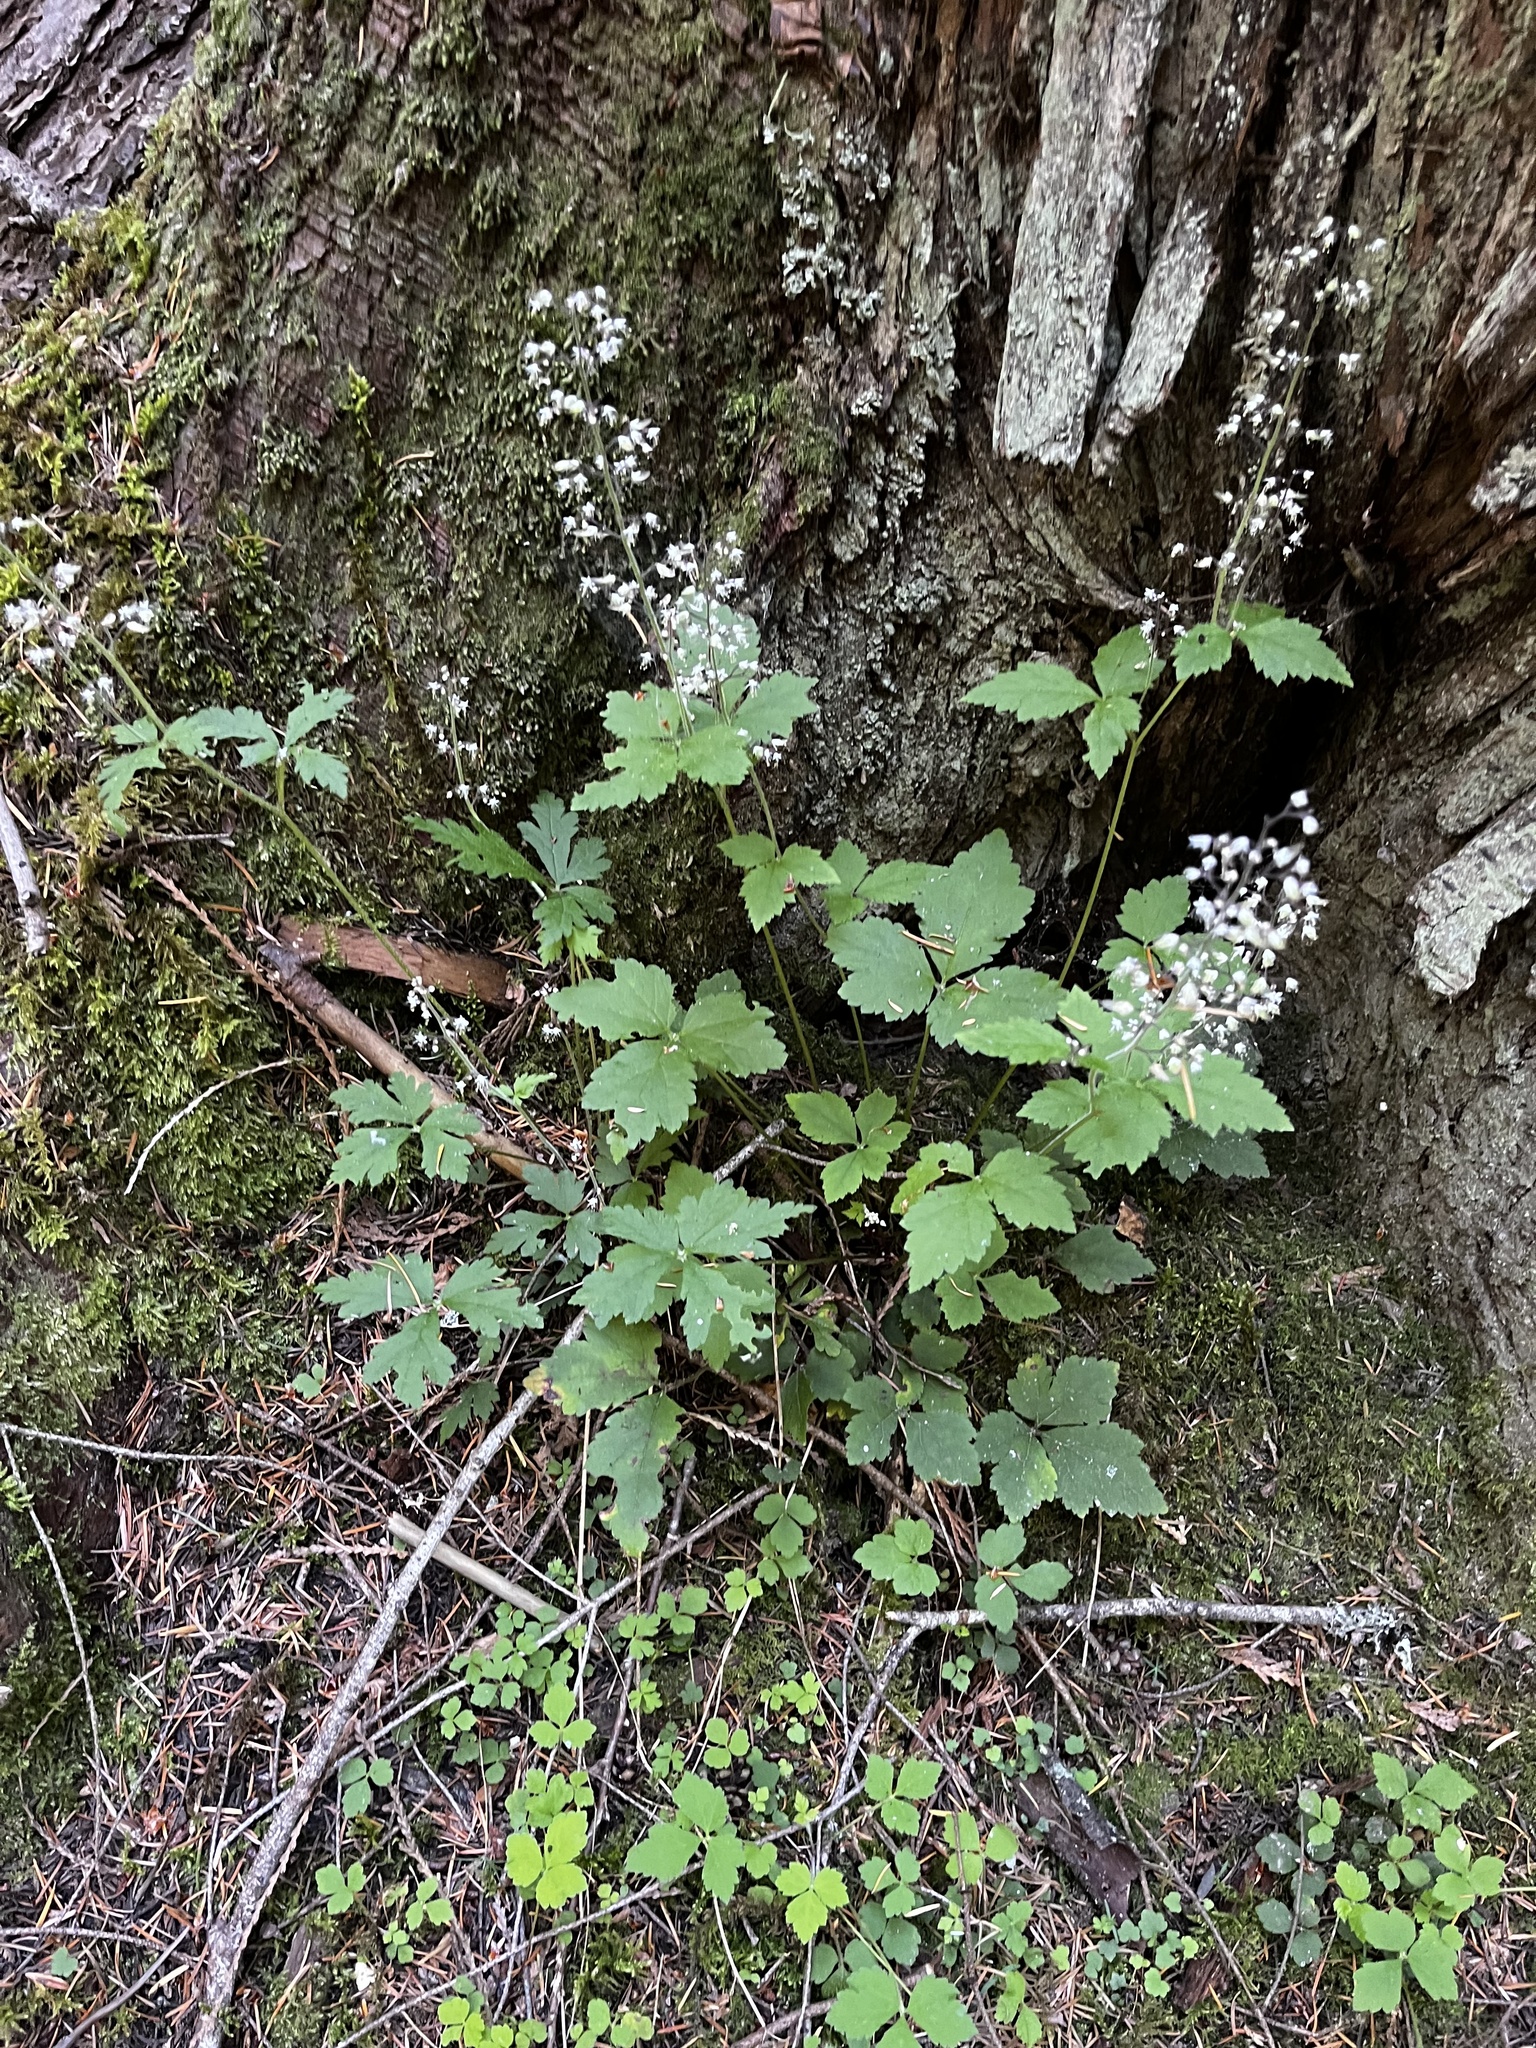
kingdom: Plantae
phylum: Tracheophyta
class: Magnoliopsida
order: Saxifragales
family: Saxifragaceae
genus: Tiarella
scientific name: Tiarella trifoliata
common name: Sugar-scoop
